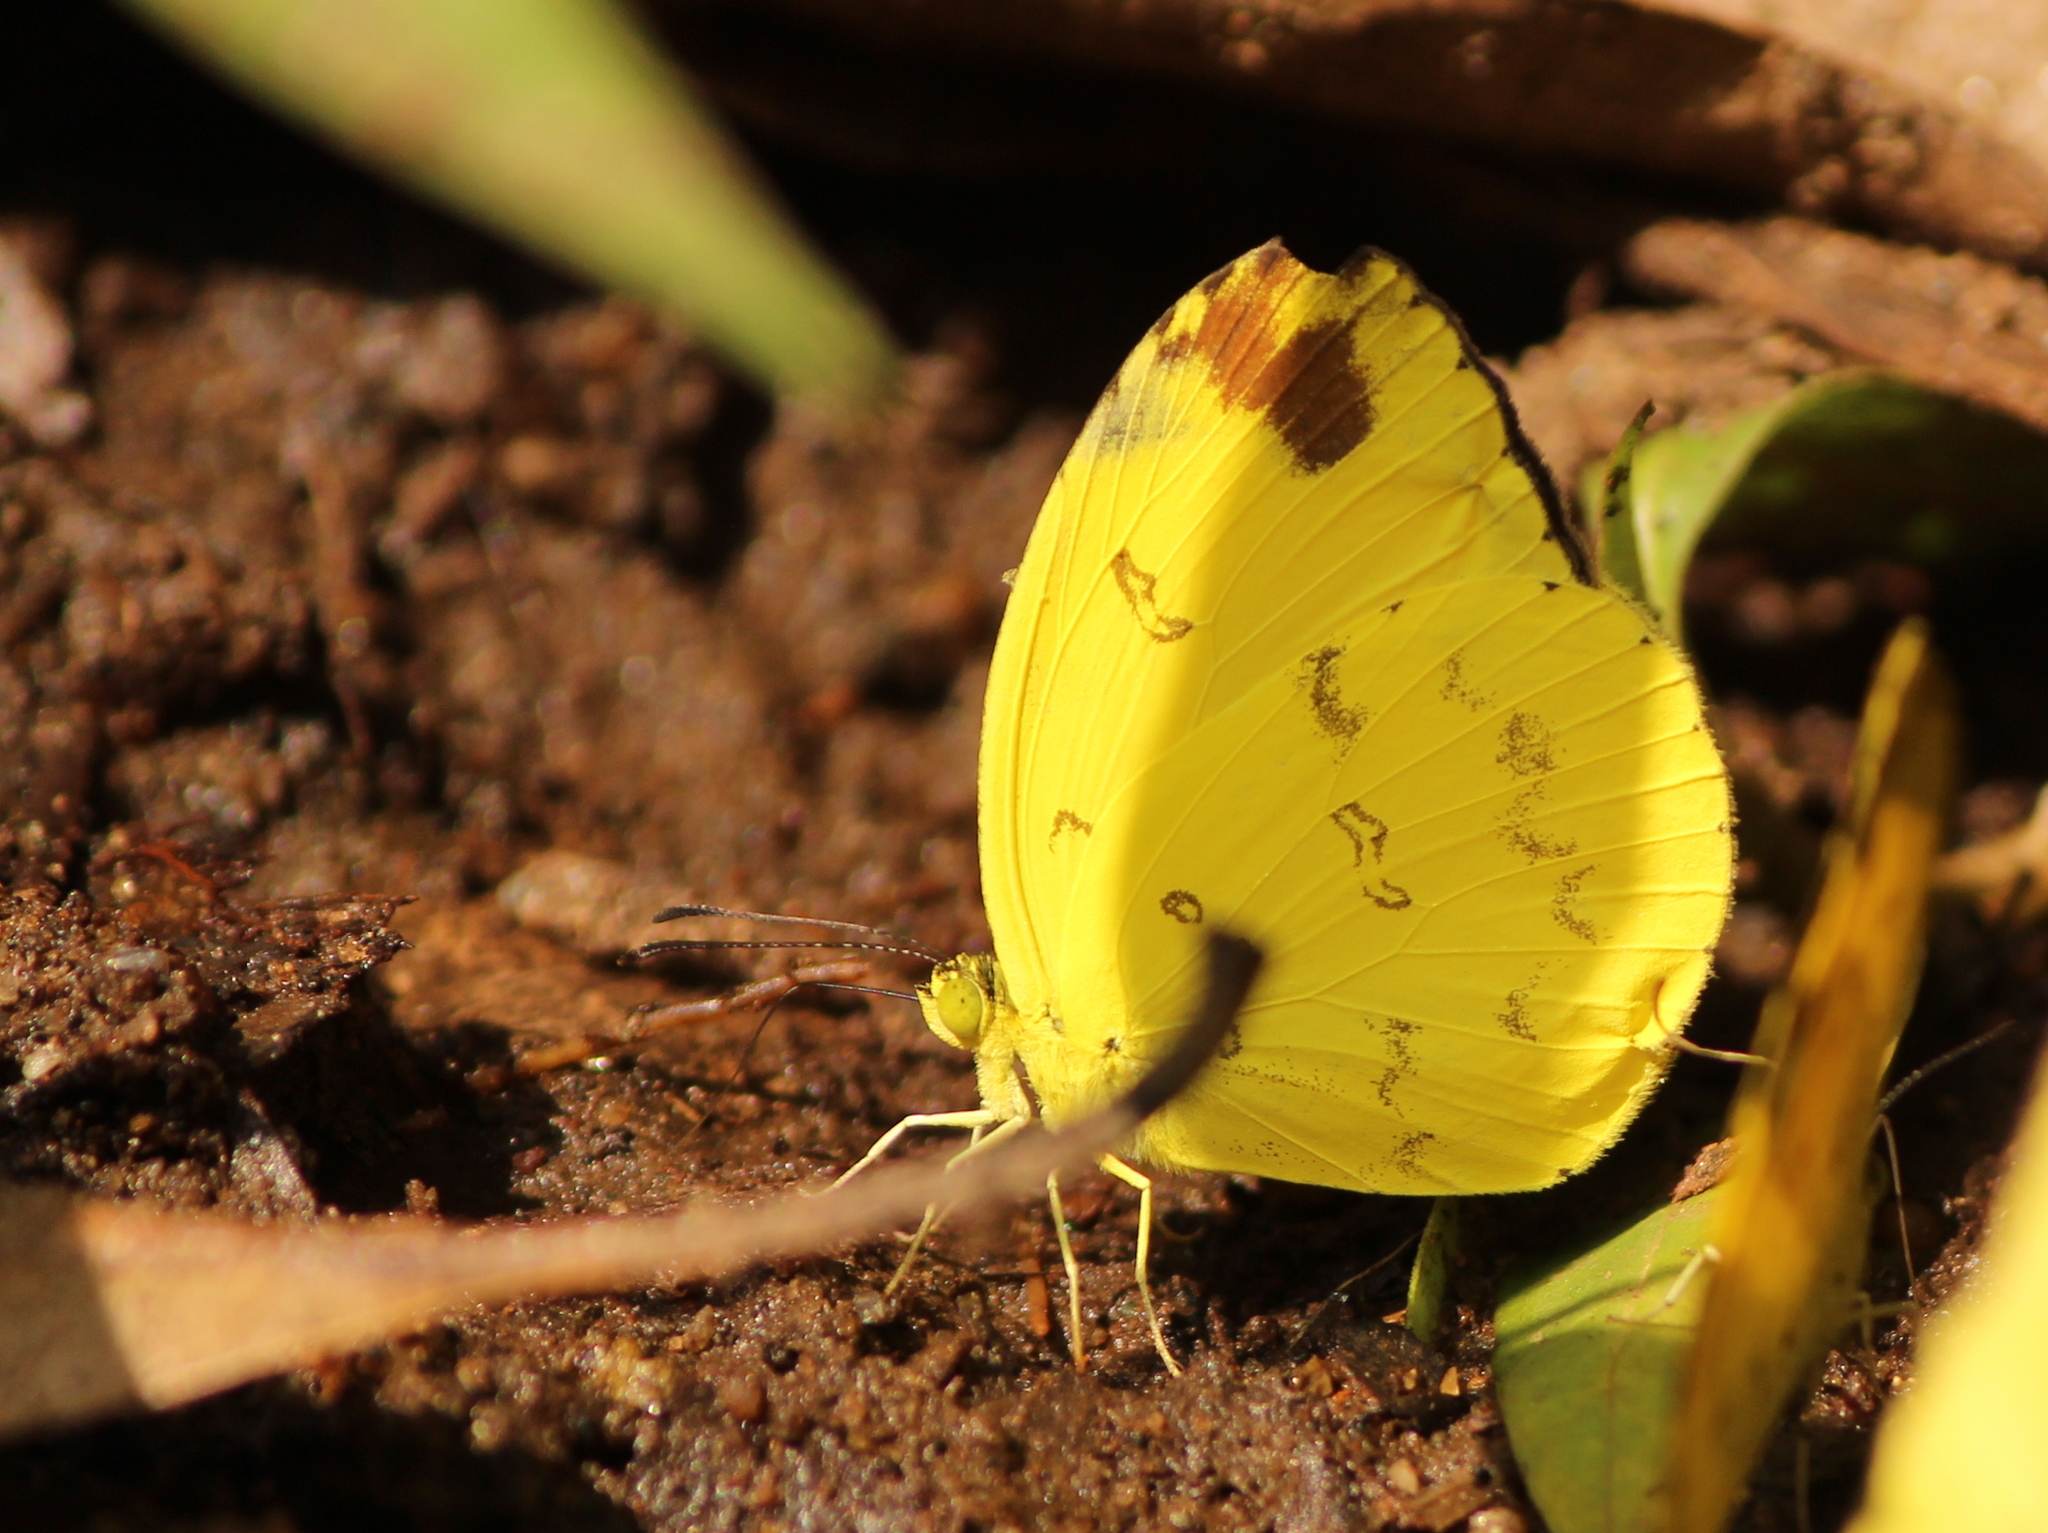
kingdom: Animalia
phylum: Arthropoda
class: Insecta
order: Lepidoptera
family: Pieridae
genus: Eurema
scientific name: Eurema andersoni
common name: One-spot yellow grass
